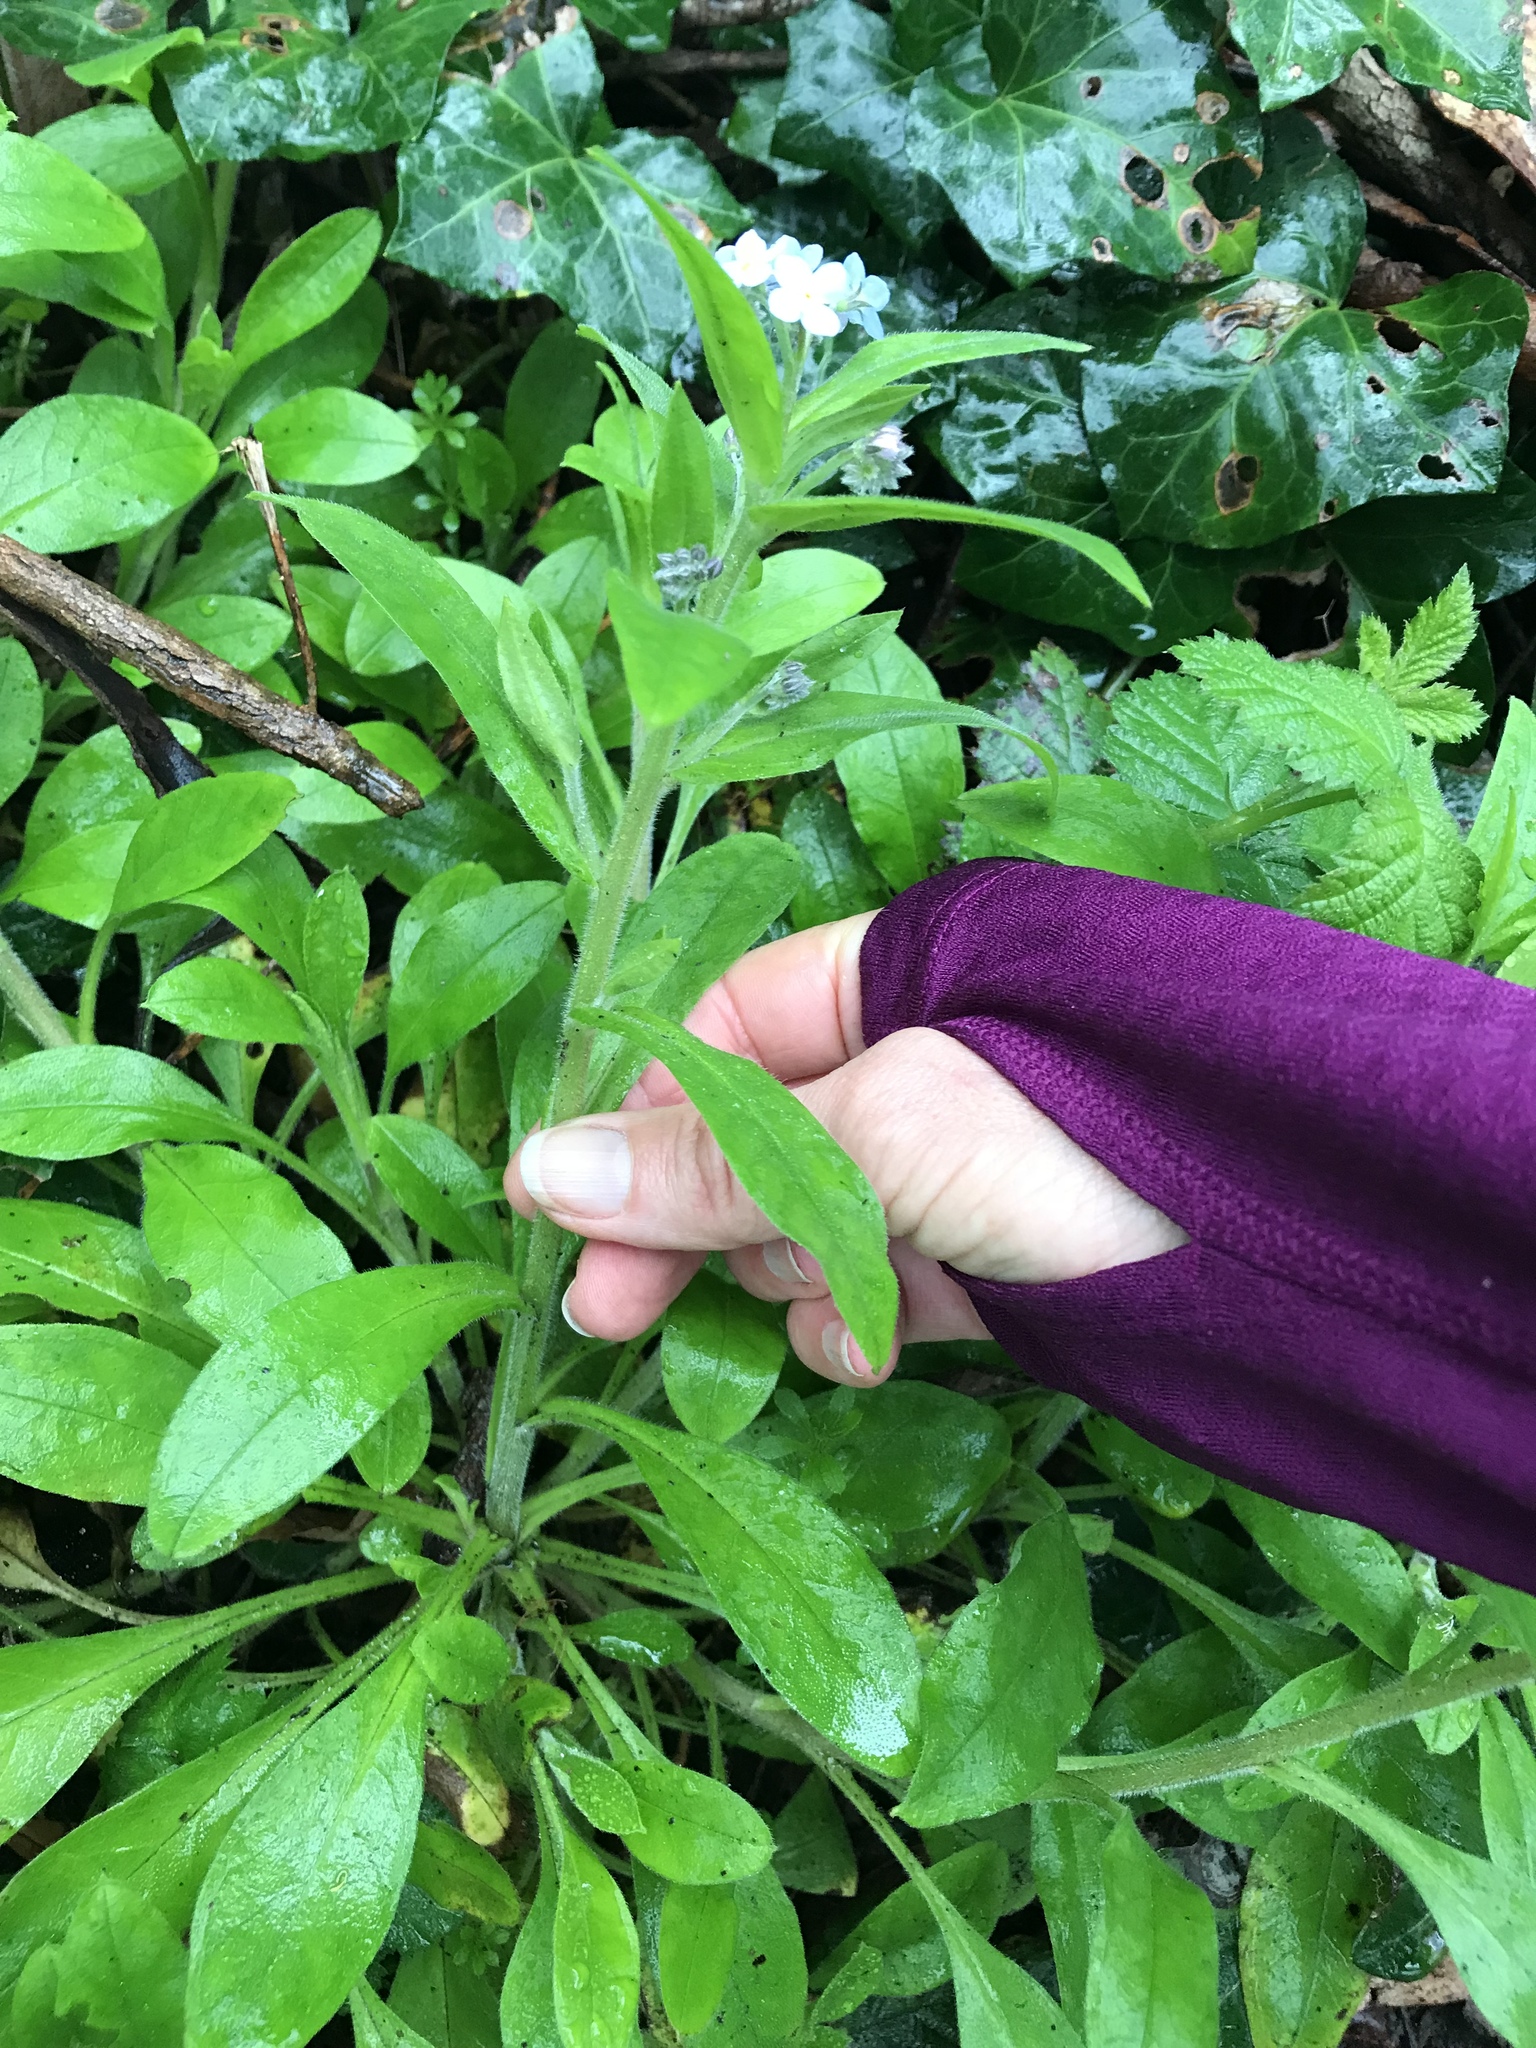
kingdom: Plantae
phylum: Tracheophyta
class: Magnoliopsida
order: Boraginales
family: Boraginaceae
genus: Myosotis
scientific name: Myosotis latifolia
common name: Broadleaf forget-me-not
